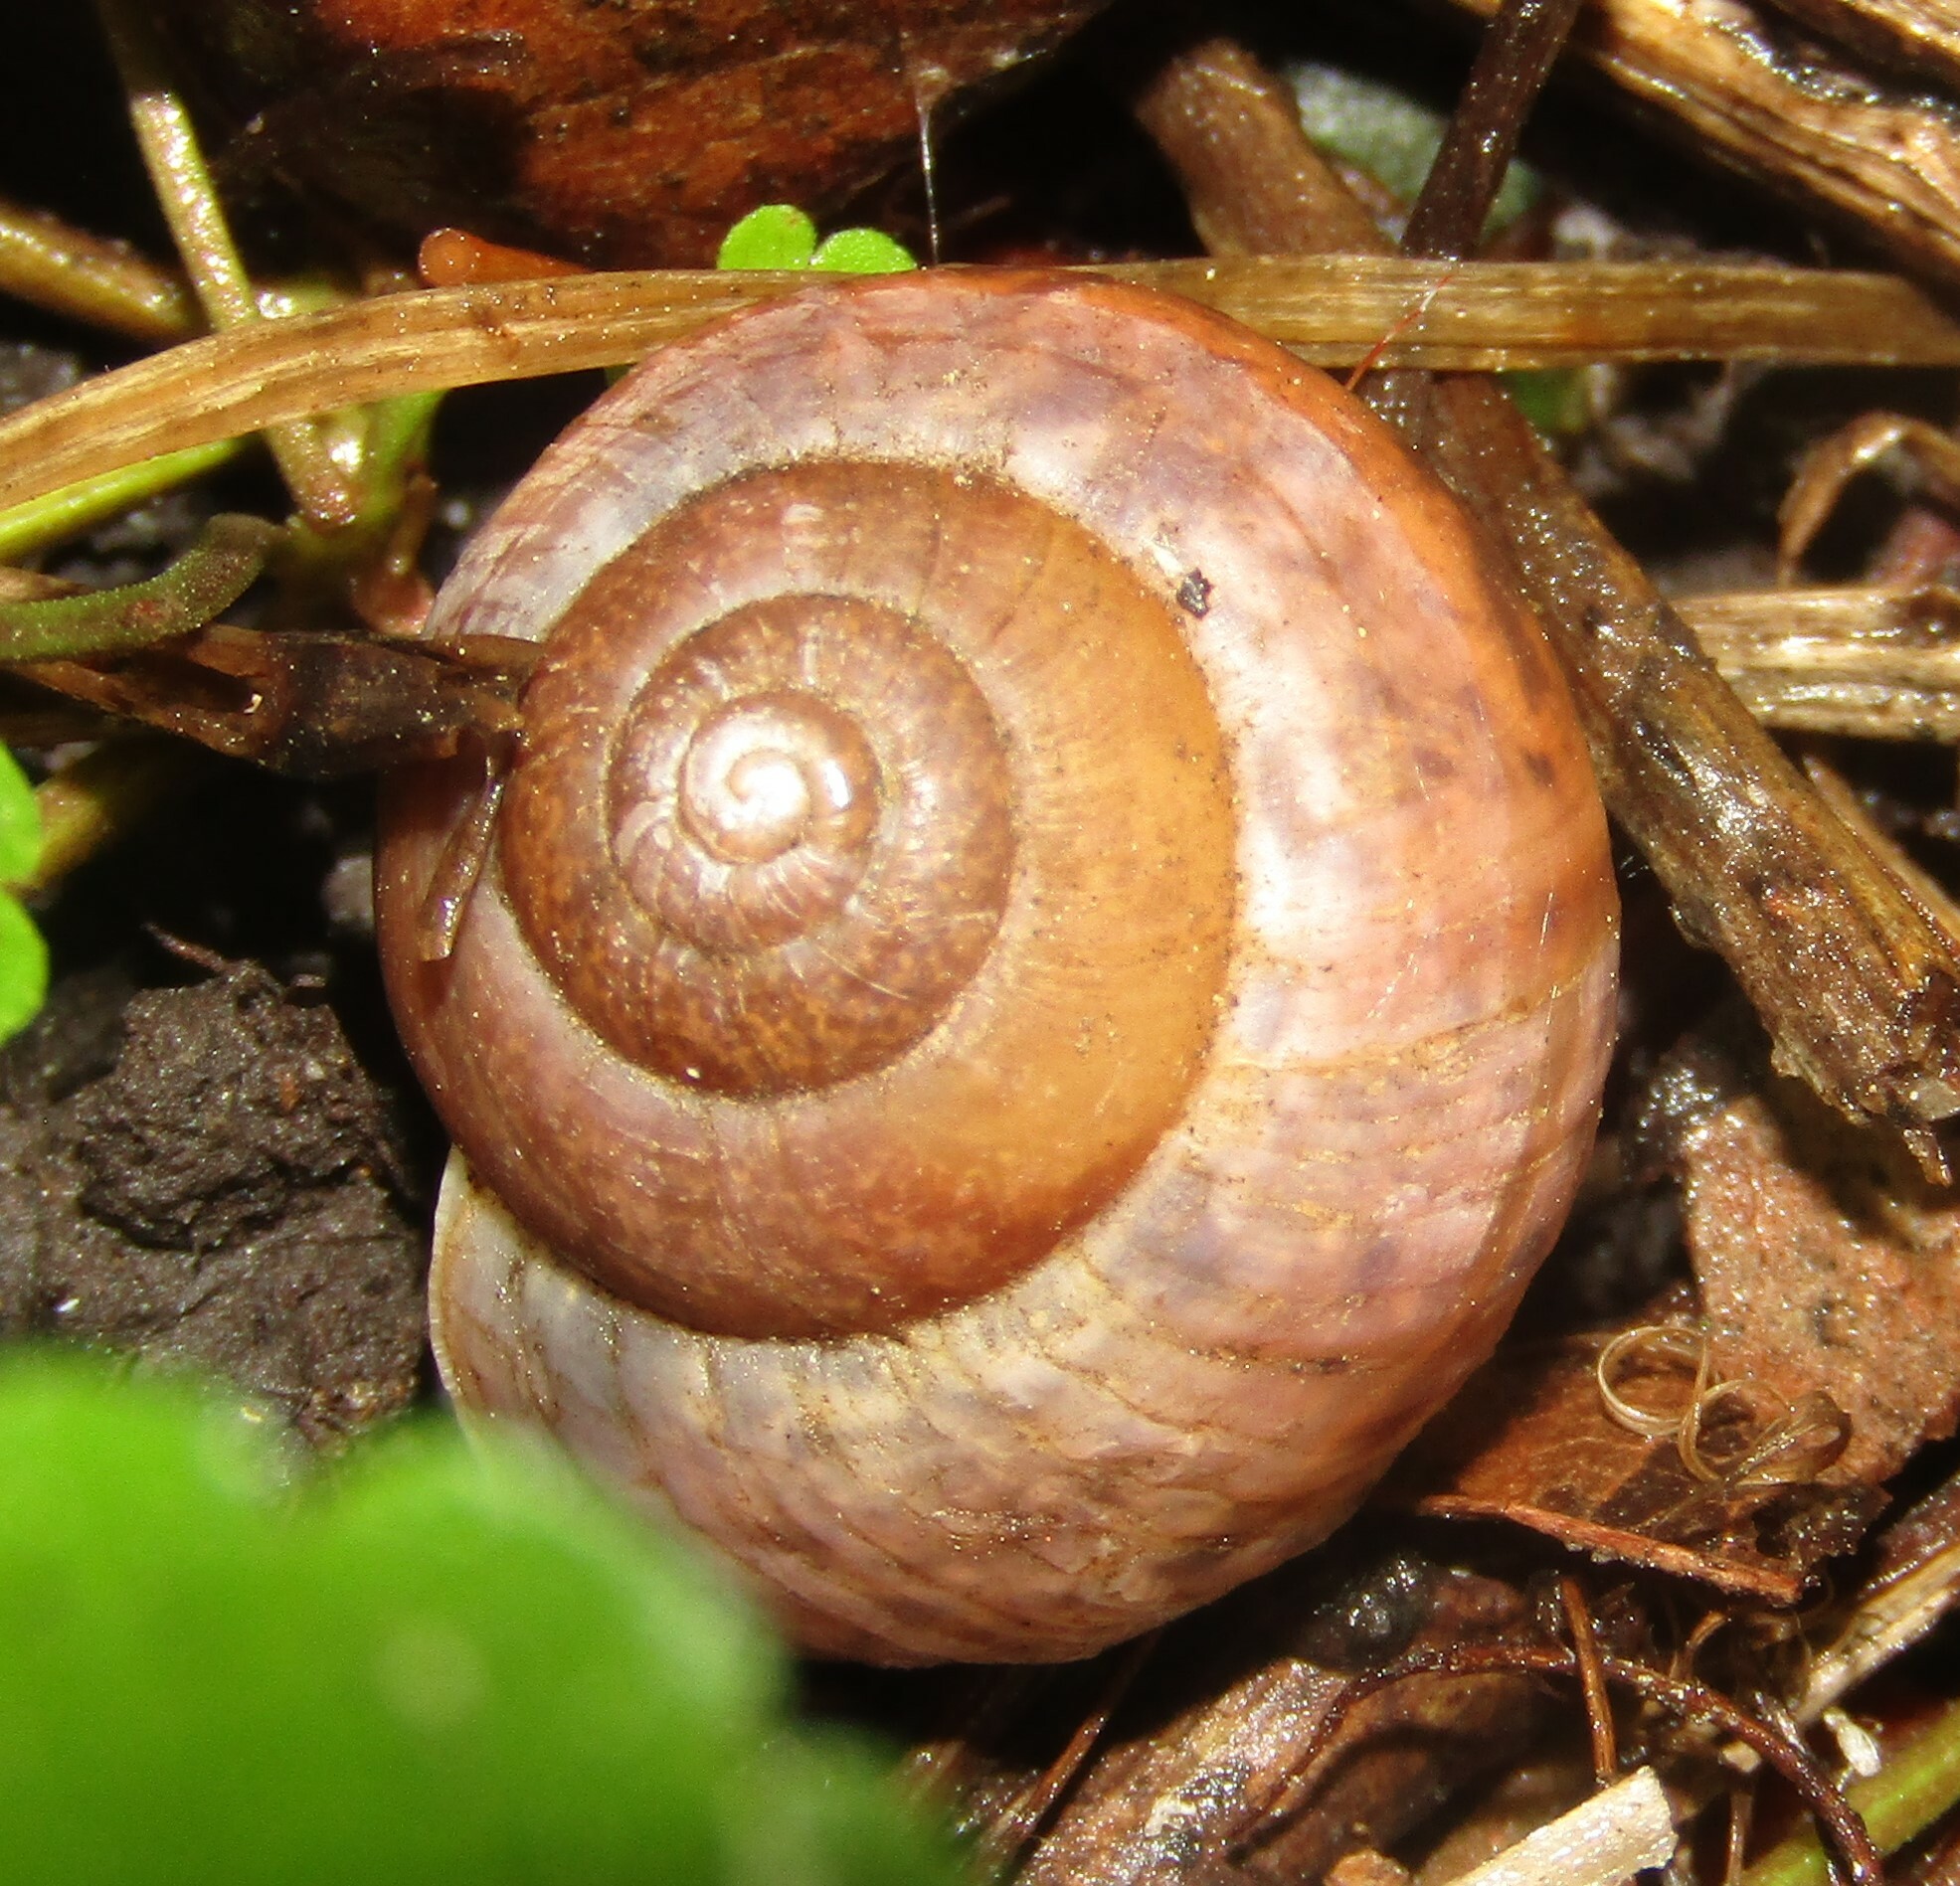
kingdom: Animalia
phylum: Mollusca
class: Gastropoda
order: Stylommatophora
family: Camaenidae
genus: Fruticicola
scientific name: Fruticicola fruticum
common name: Bush snail
